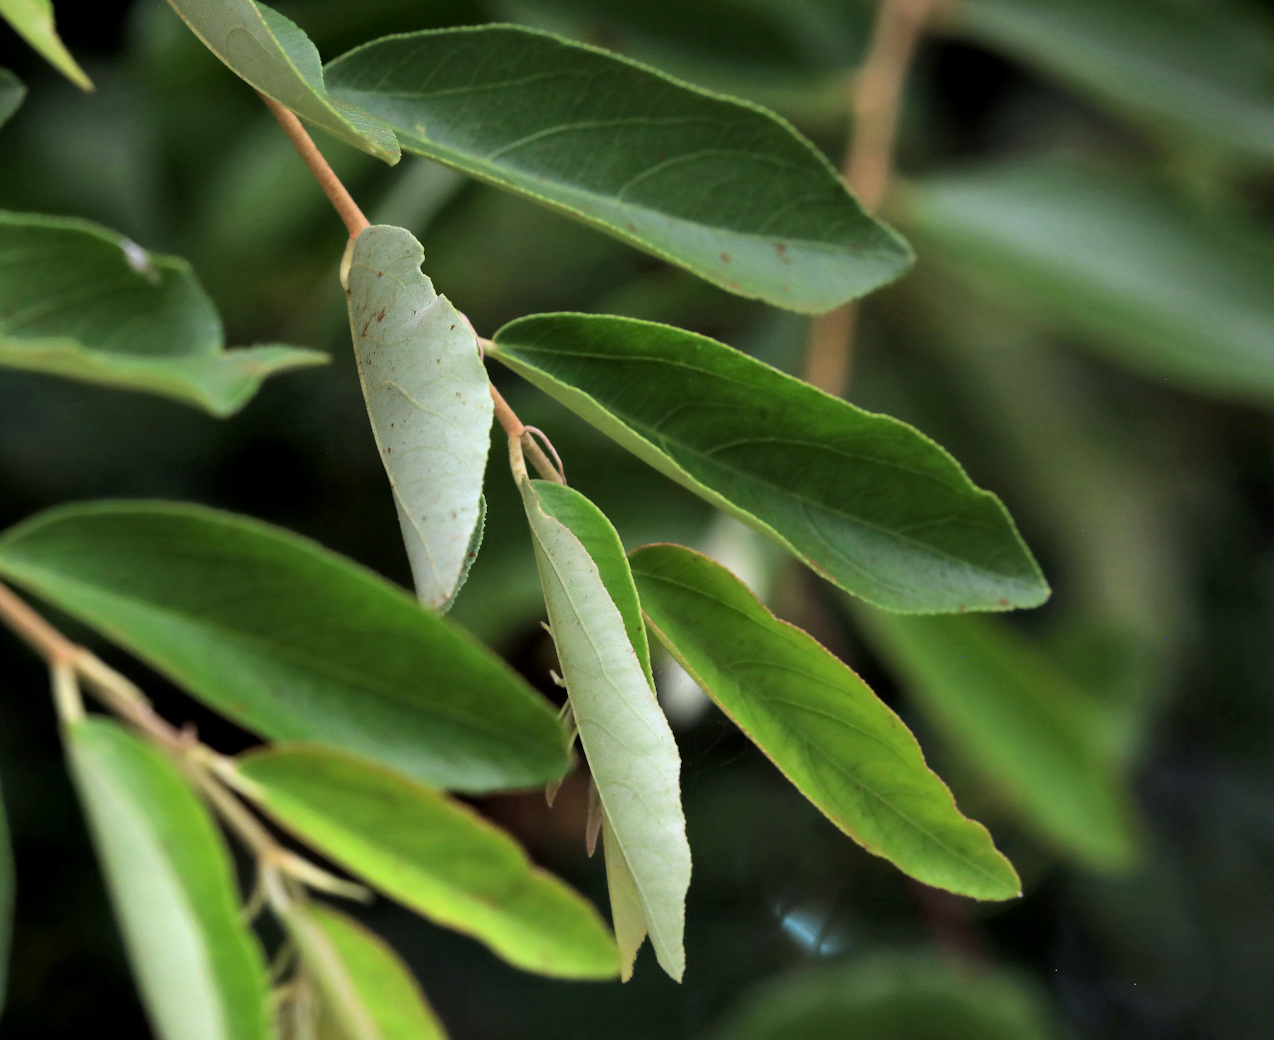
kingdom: Plantae
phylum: Tracheophyta
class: Magnoliopsida
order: Malvales
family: Malvaceae
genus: Grewia
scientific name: Grewia bicolor
